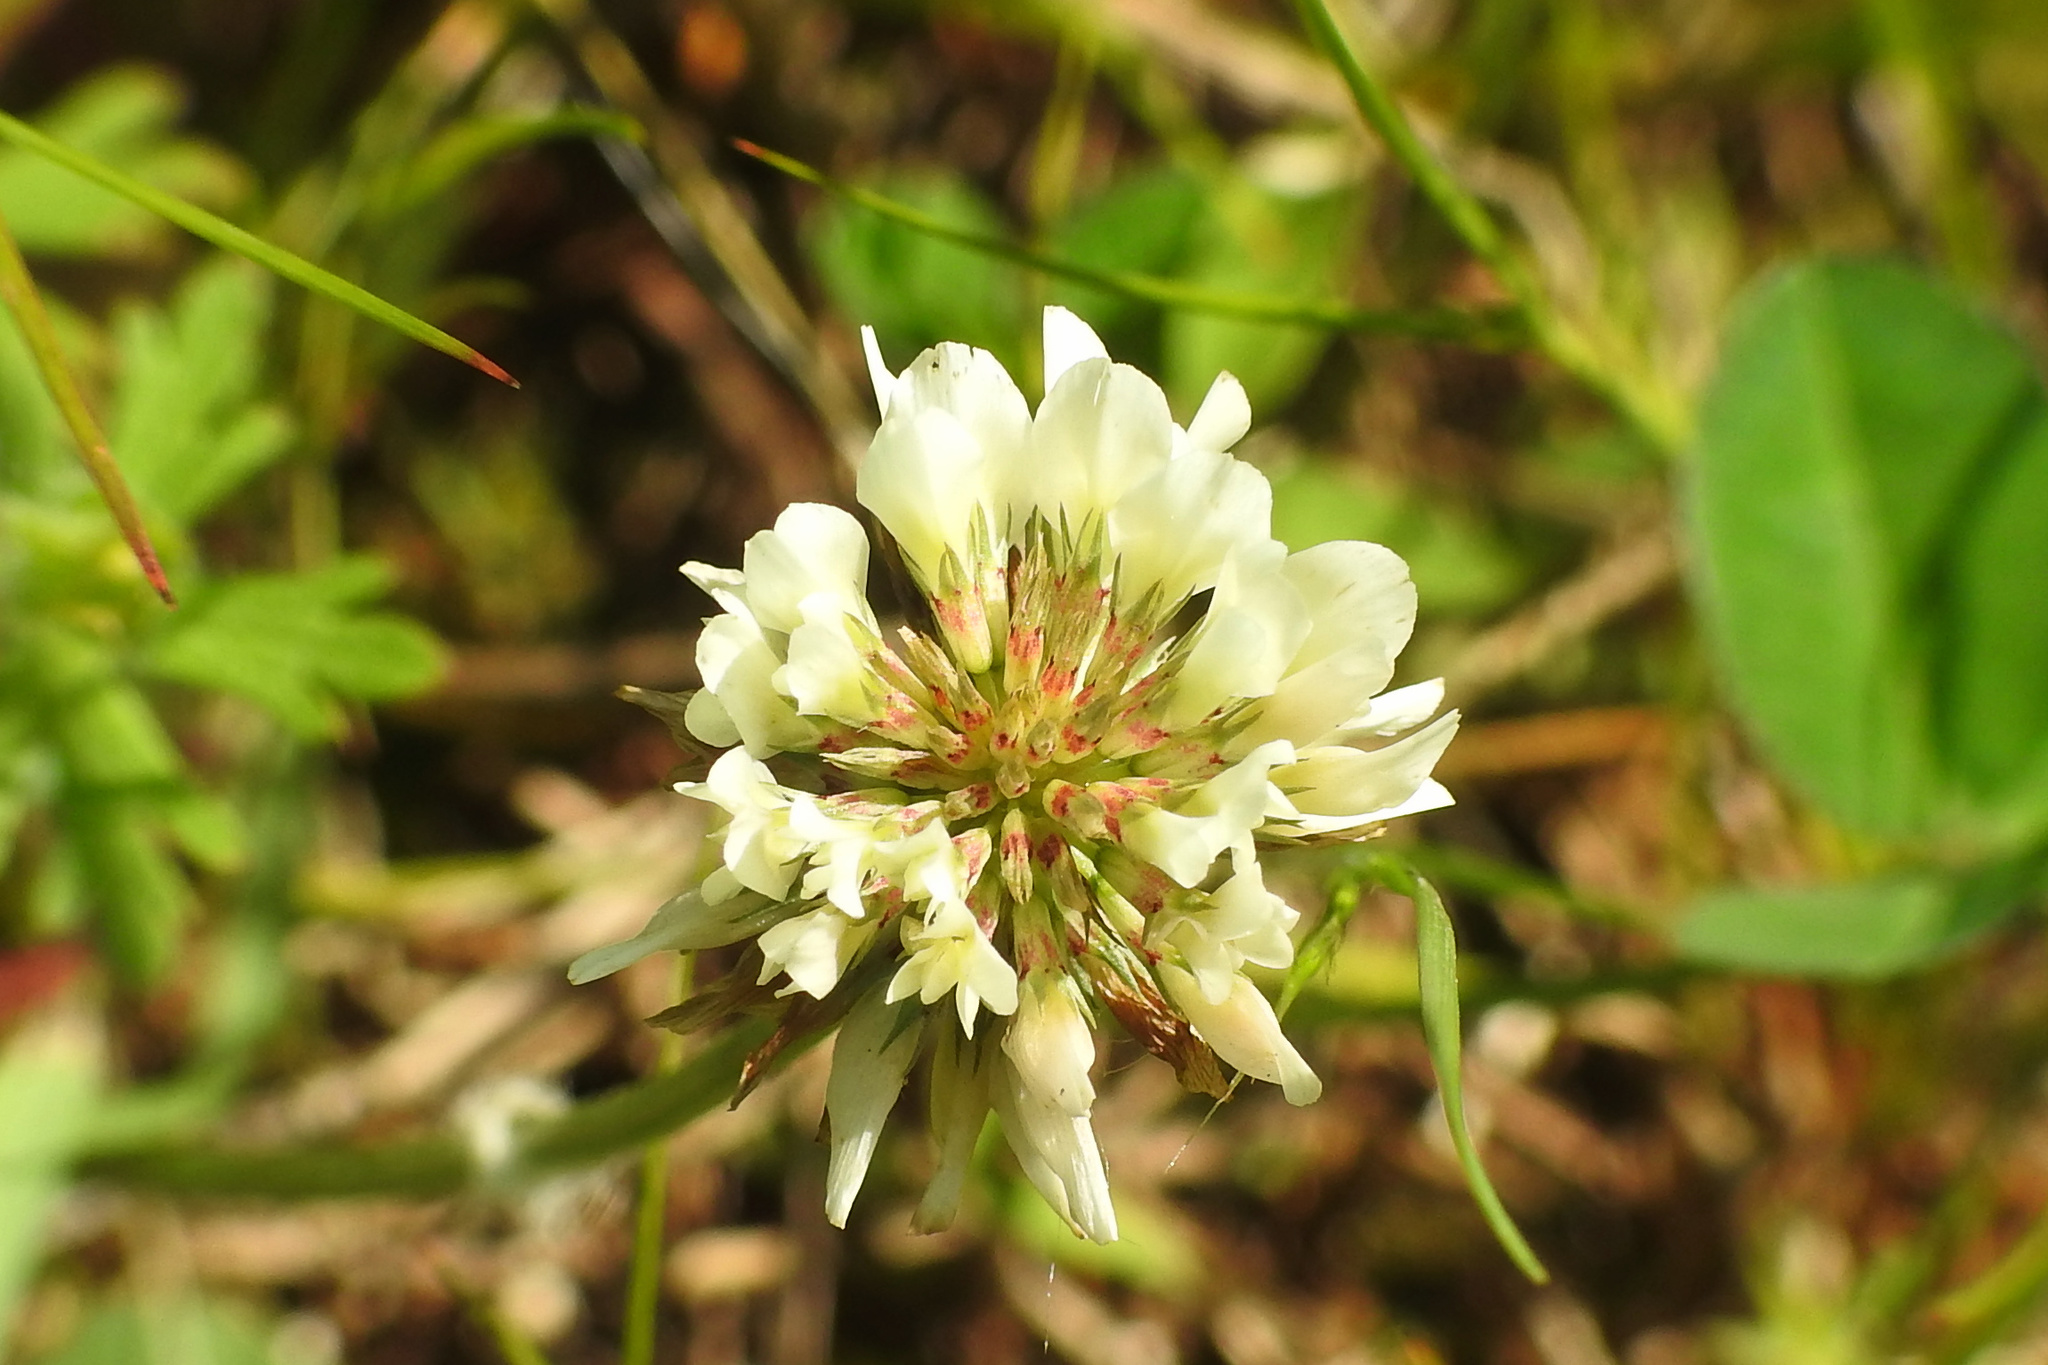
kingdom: Plantae
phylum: Tracheophyta
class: Magnoliopsida
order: Fabales
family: Fabaceae
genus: Trifolium
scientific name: Trifolium repens
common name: White clover
